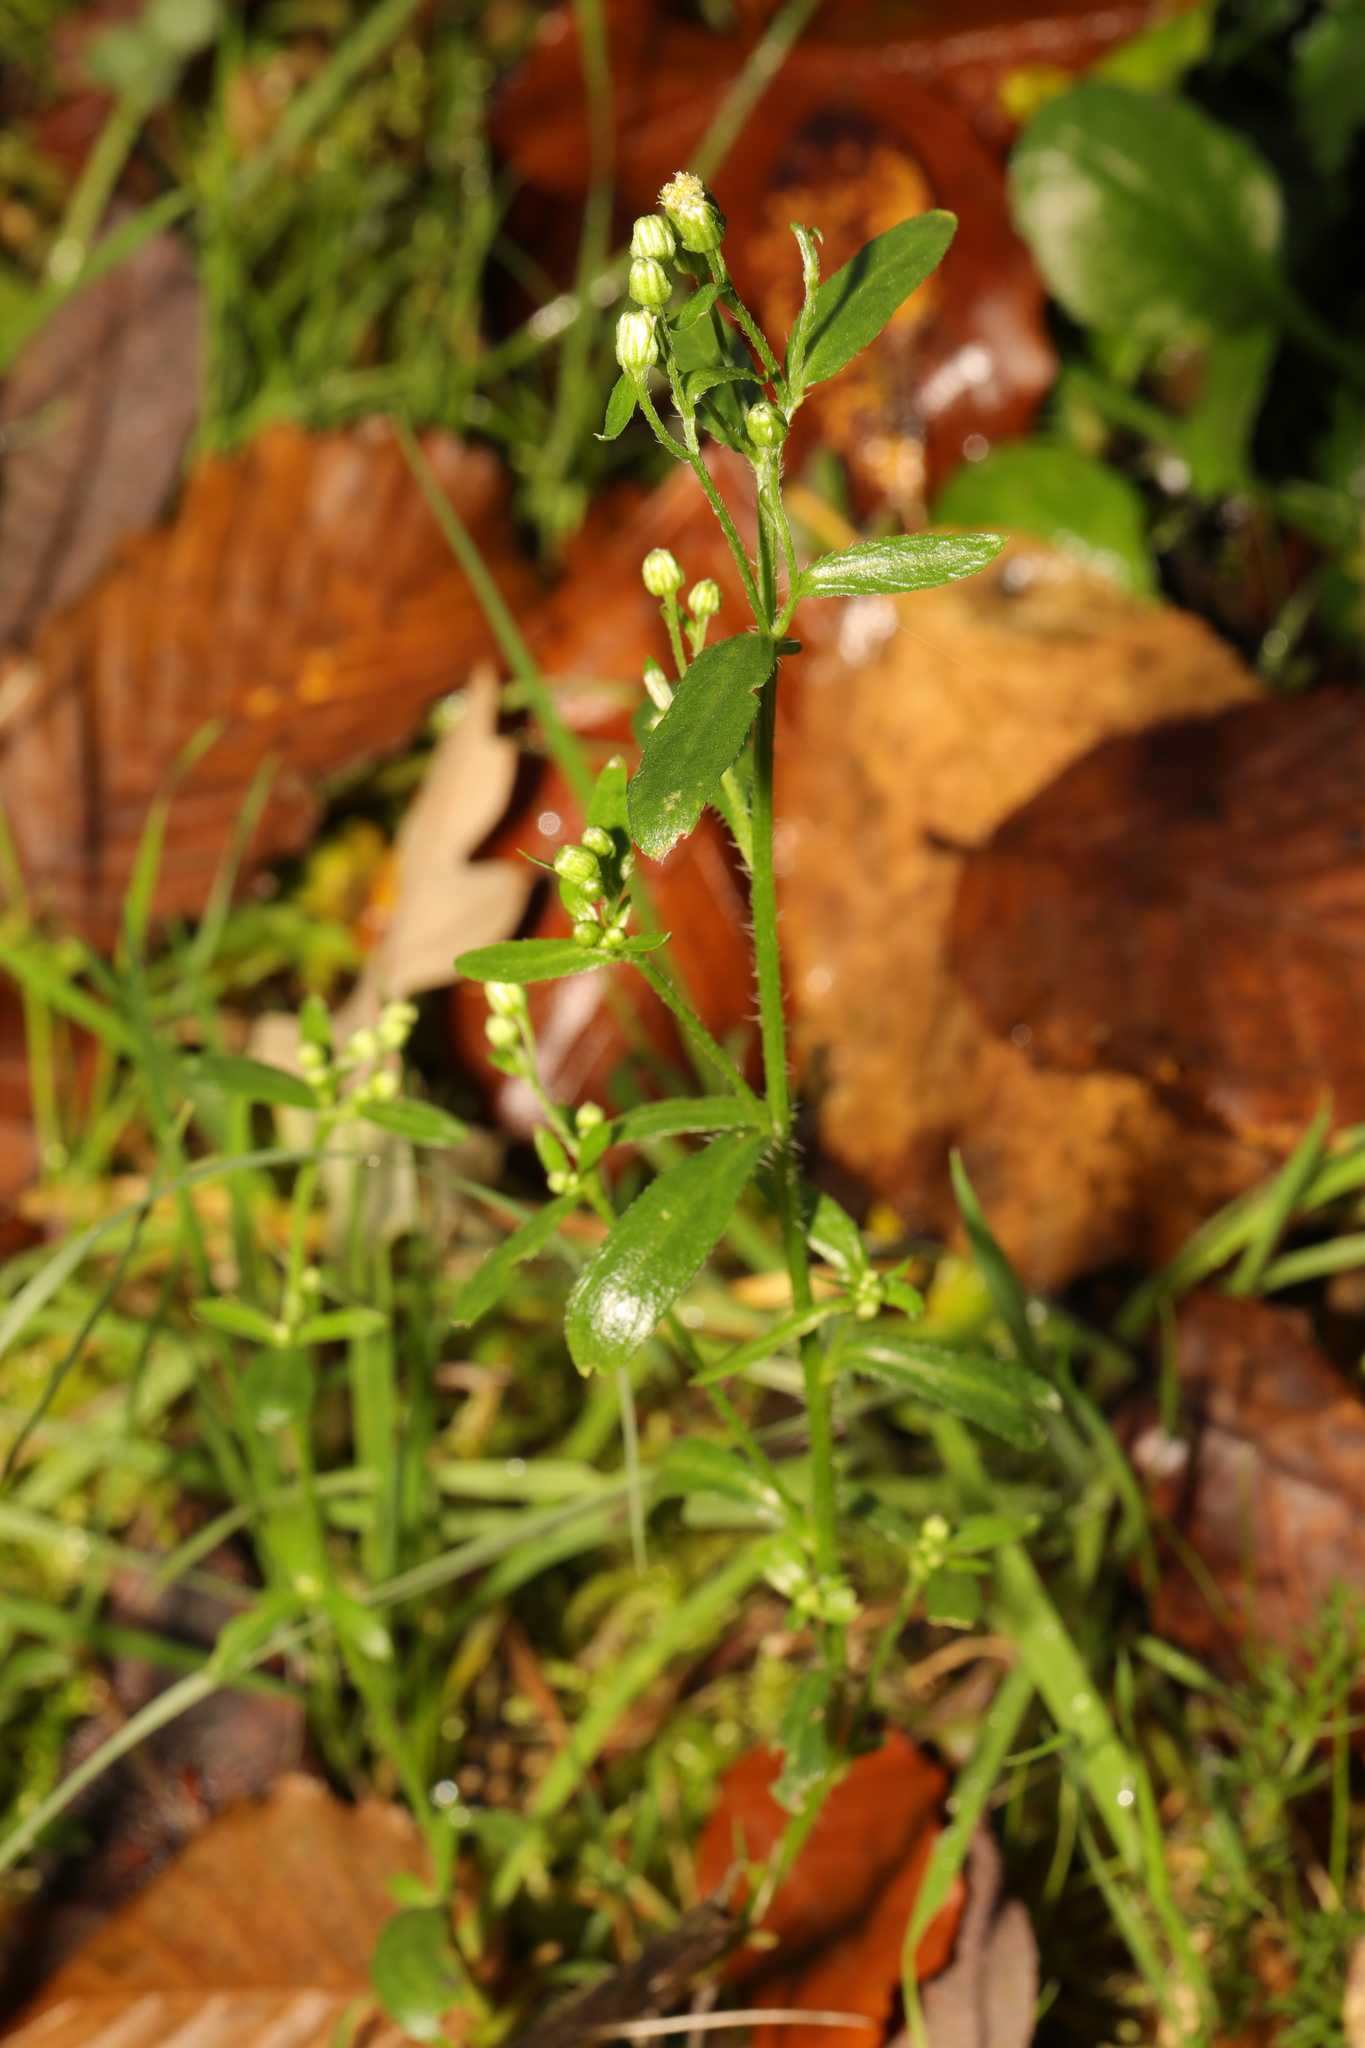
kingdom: Plantae
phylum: Tracheophyta
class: Magnoliopsida
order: Asterales
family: Asteraceae
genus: Erigeron
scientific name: Erigeron canadensis
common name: Canadian fleabane
